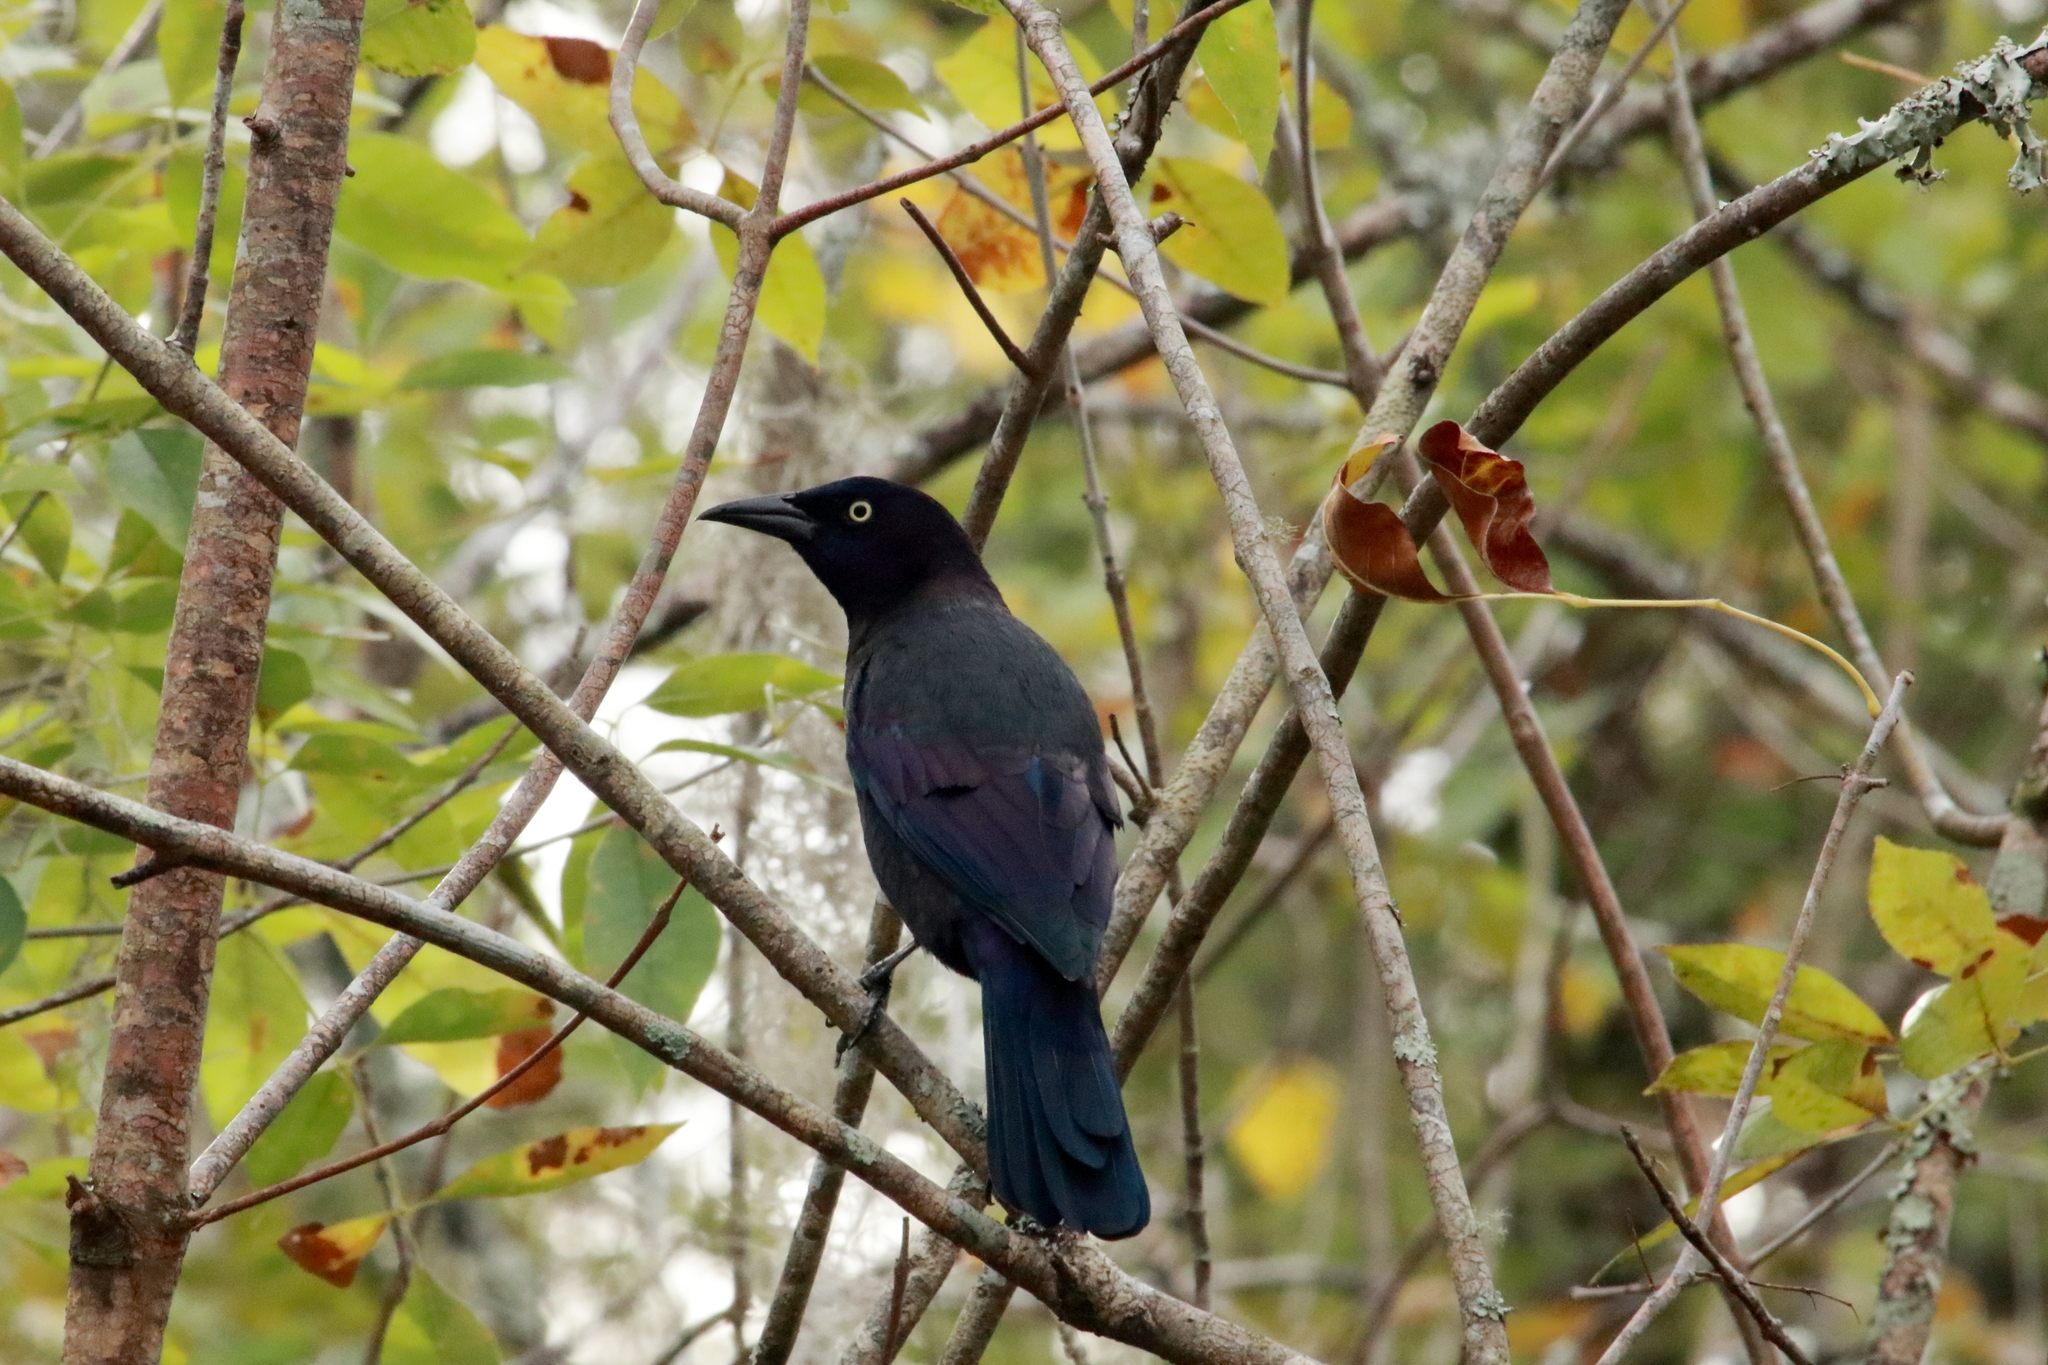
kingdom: Animalia
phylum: Chordata
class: Aves
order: Passeriformes
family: Icteridae
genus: Quiscalus
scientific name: Quiscalus quiscula
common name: Common grackle
